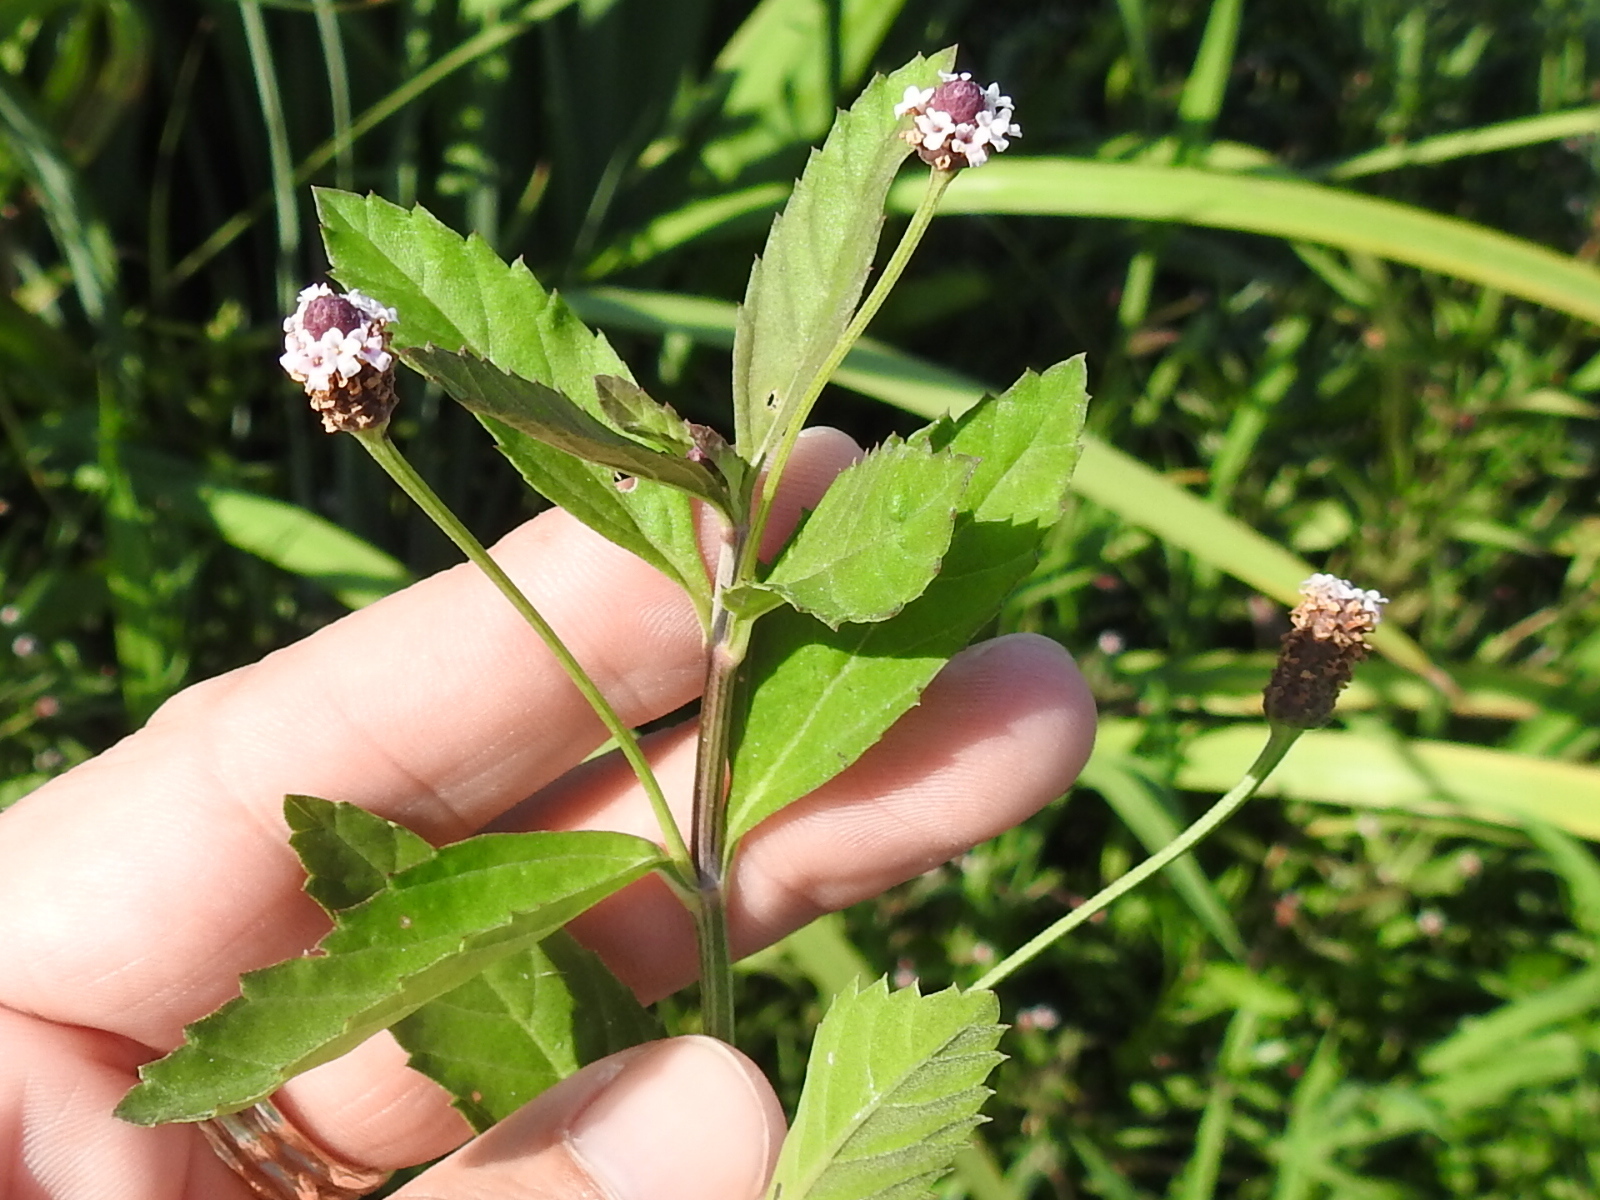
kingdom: Plantae
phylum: Tracheophyta
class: Magnoliopsida
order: Lamiales
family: Verbenaceae
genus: Phyla
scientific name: Phyla lanceolata
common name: Northern fogfruit
